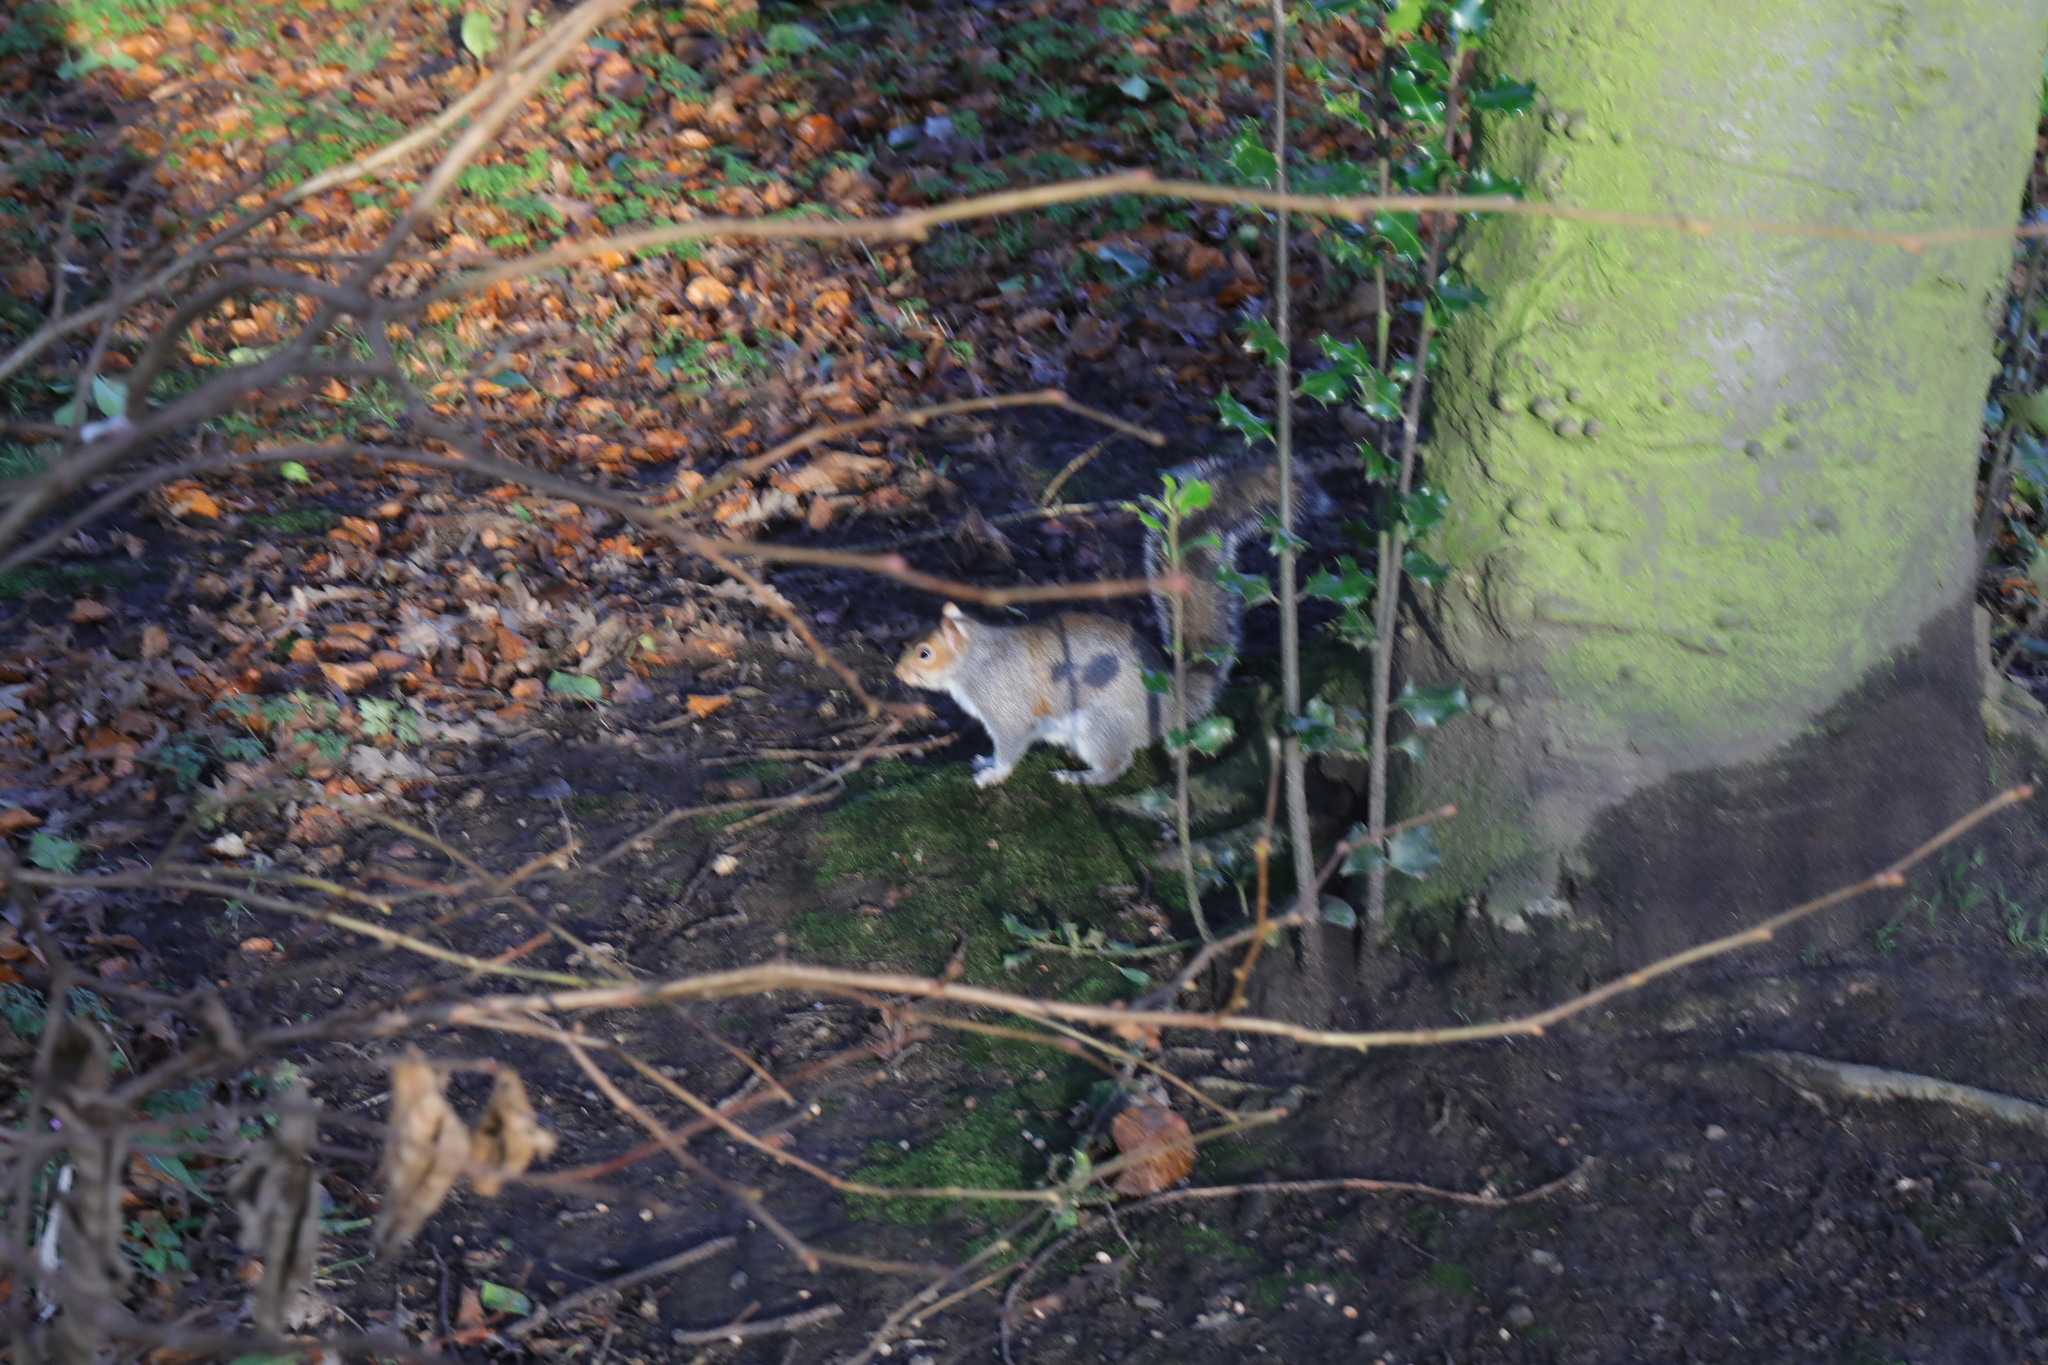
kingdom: Animalia
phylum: Chordata
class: Mammalia
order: Rodentia
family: Sciuridae
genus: Sciurus
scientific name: Sciurus carolinensis
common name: Eastern gray squirrel
